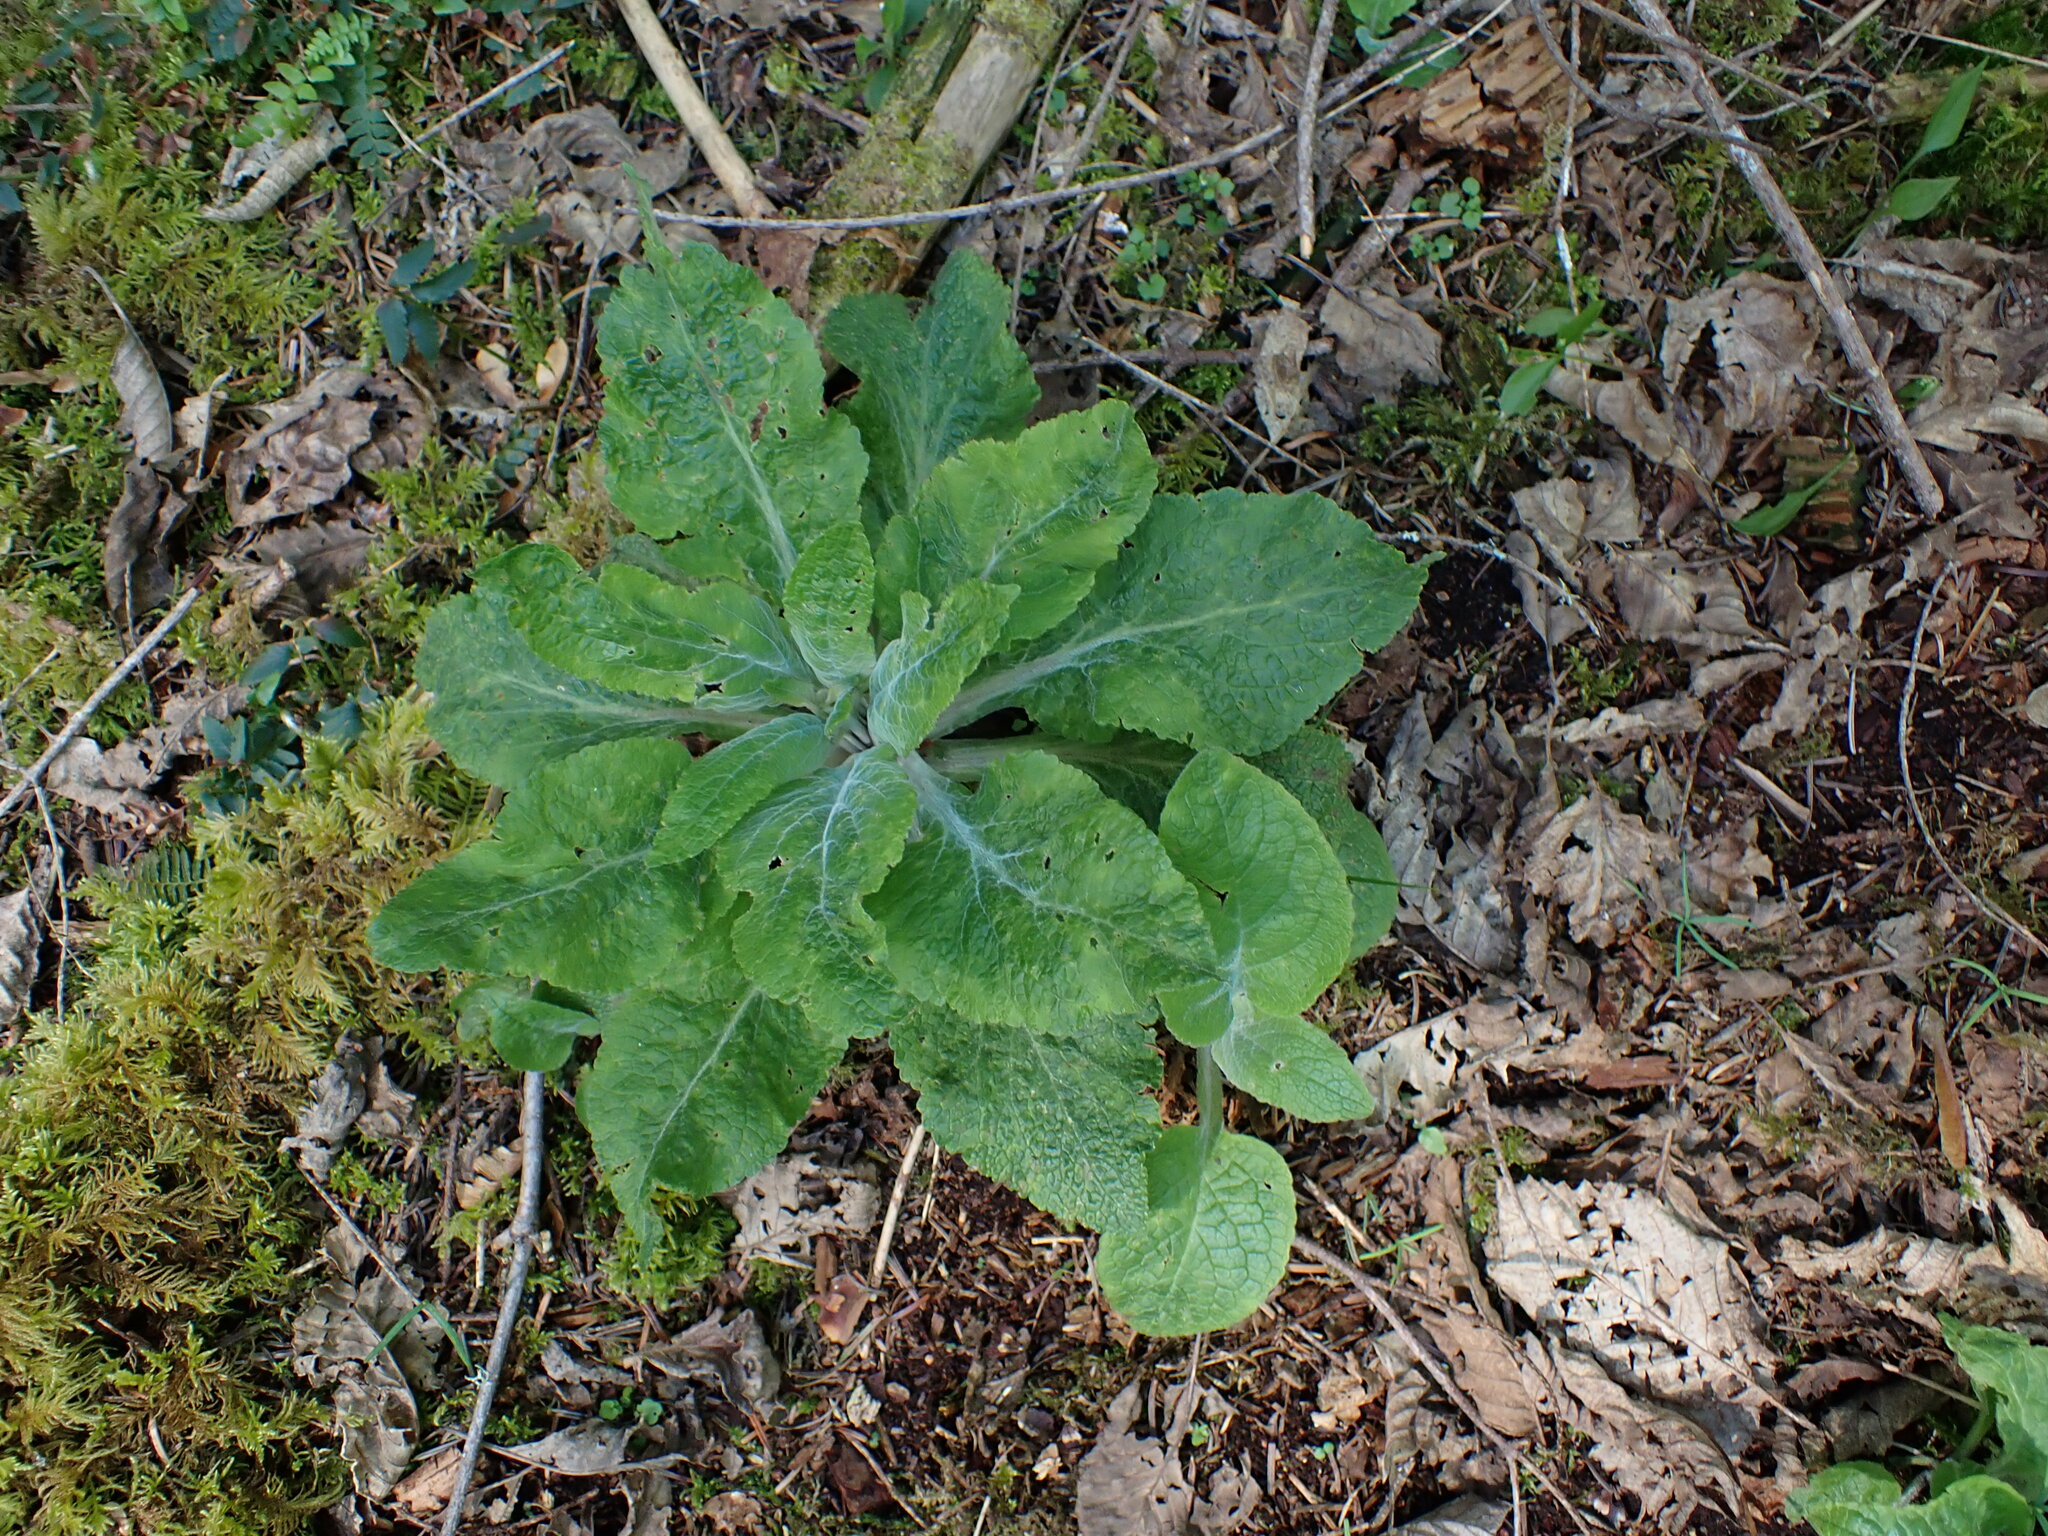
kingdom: Plantae
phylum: Tracheophyta
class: Magnoliopsida
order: Lamiales
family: Plantaginaceae
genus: Digitalis
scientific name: Digitalis purpurea
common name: Foxglove
